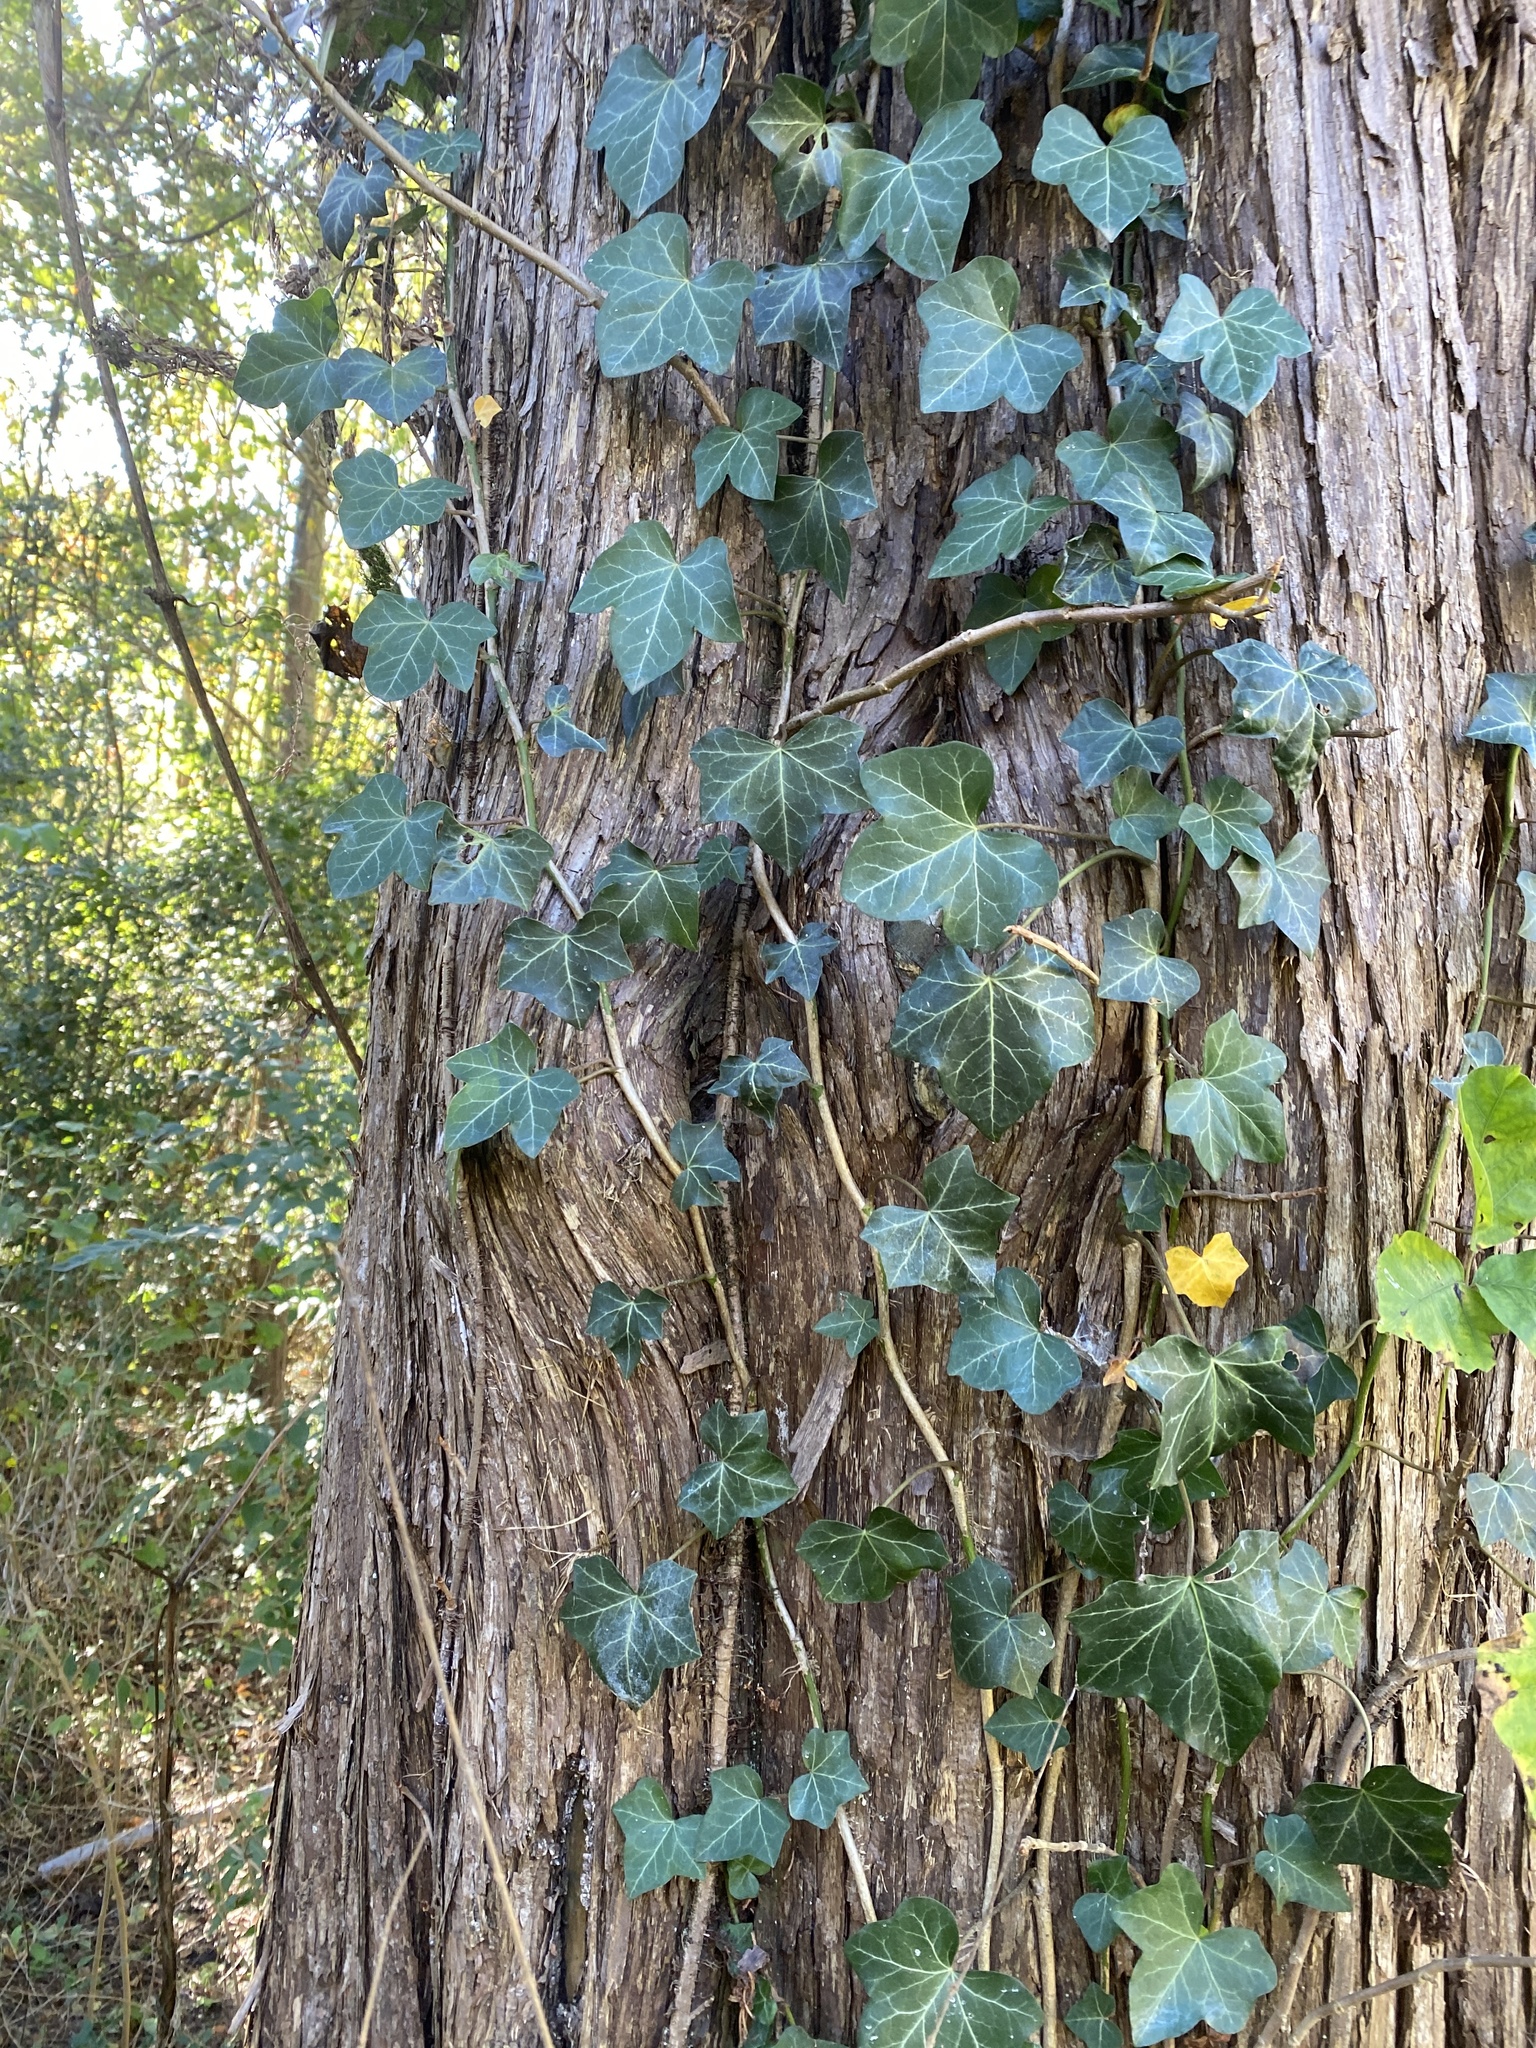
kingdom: Plantae
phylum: Tracheophyta
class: Magnoliopsida
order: Apiales
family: Araliaceae
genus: Hedera
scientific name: Hedera helix
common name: Ivy
